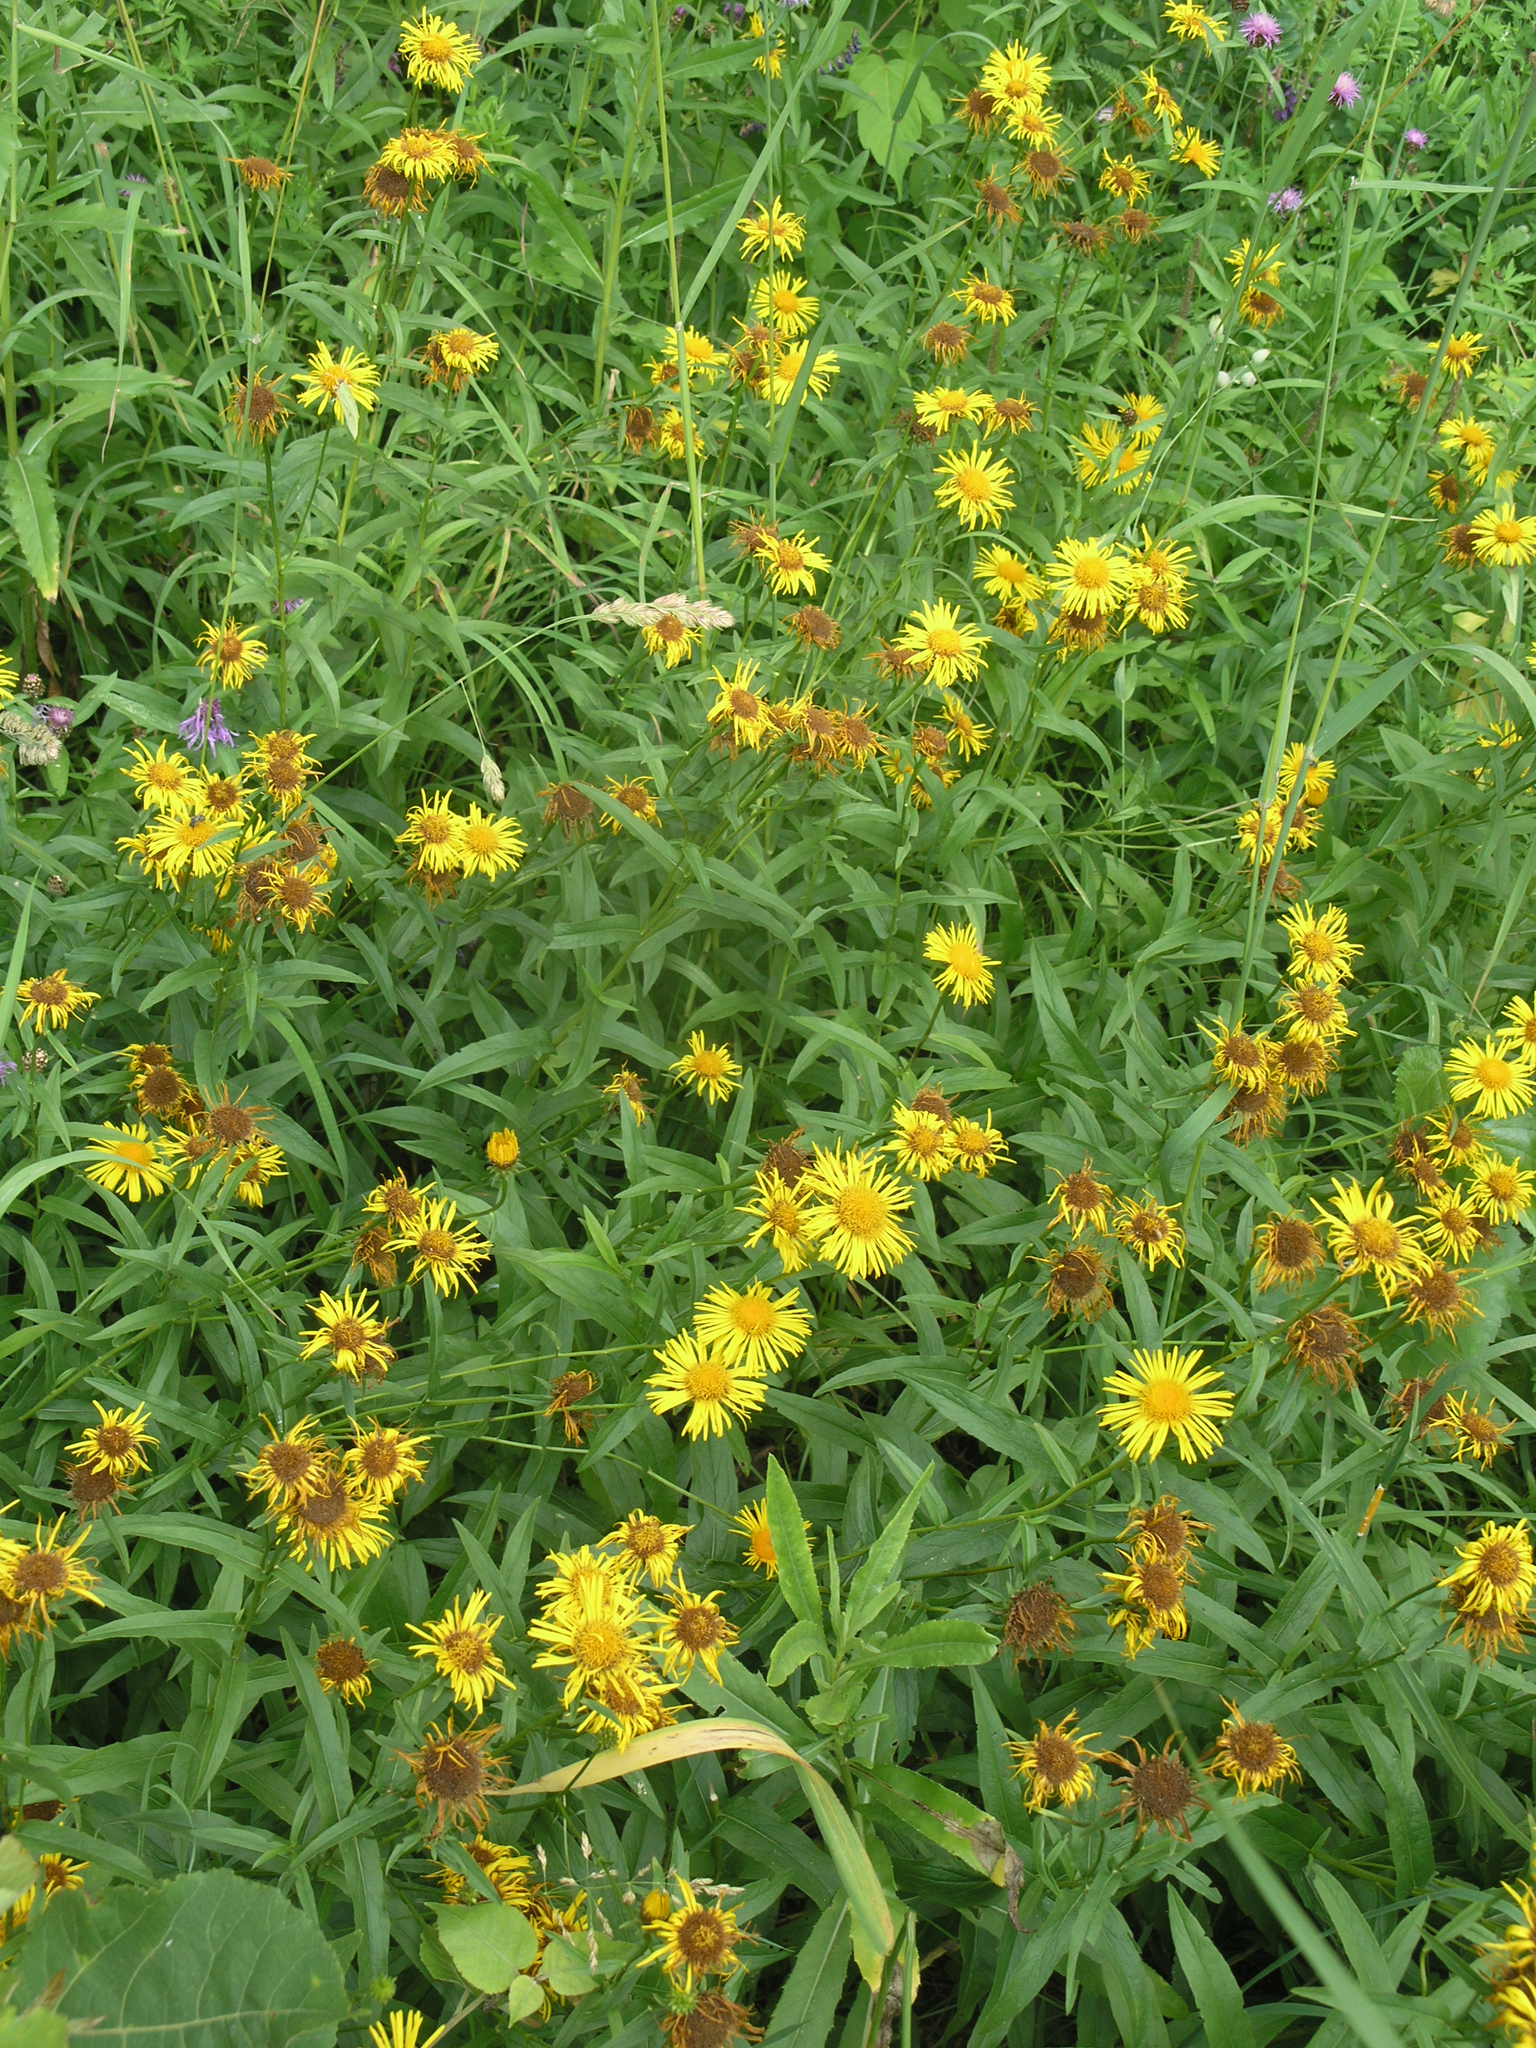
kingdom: Plantae
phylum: Tracheophyta
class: Magnoliopsida
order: Asterales
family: Asteraceae
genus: Pentanema
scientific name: Pentanema salicinum
